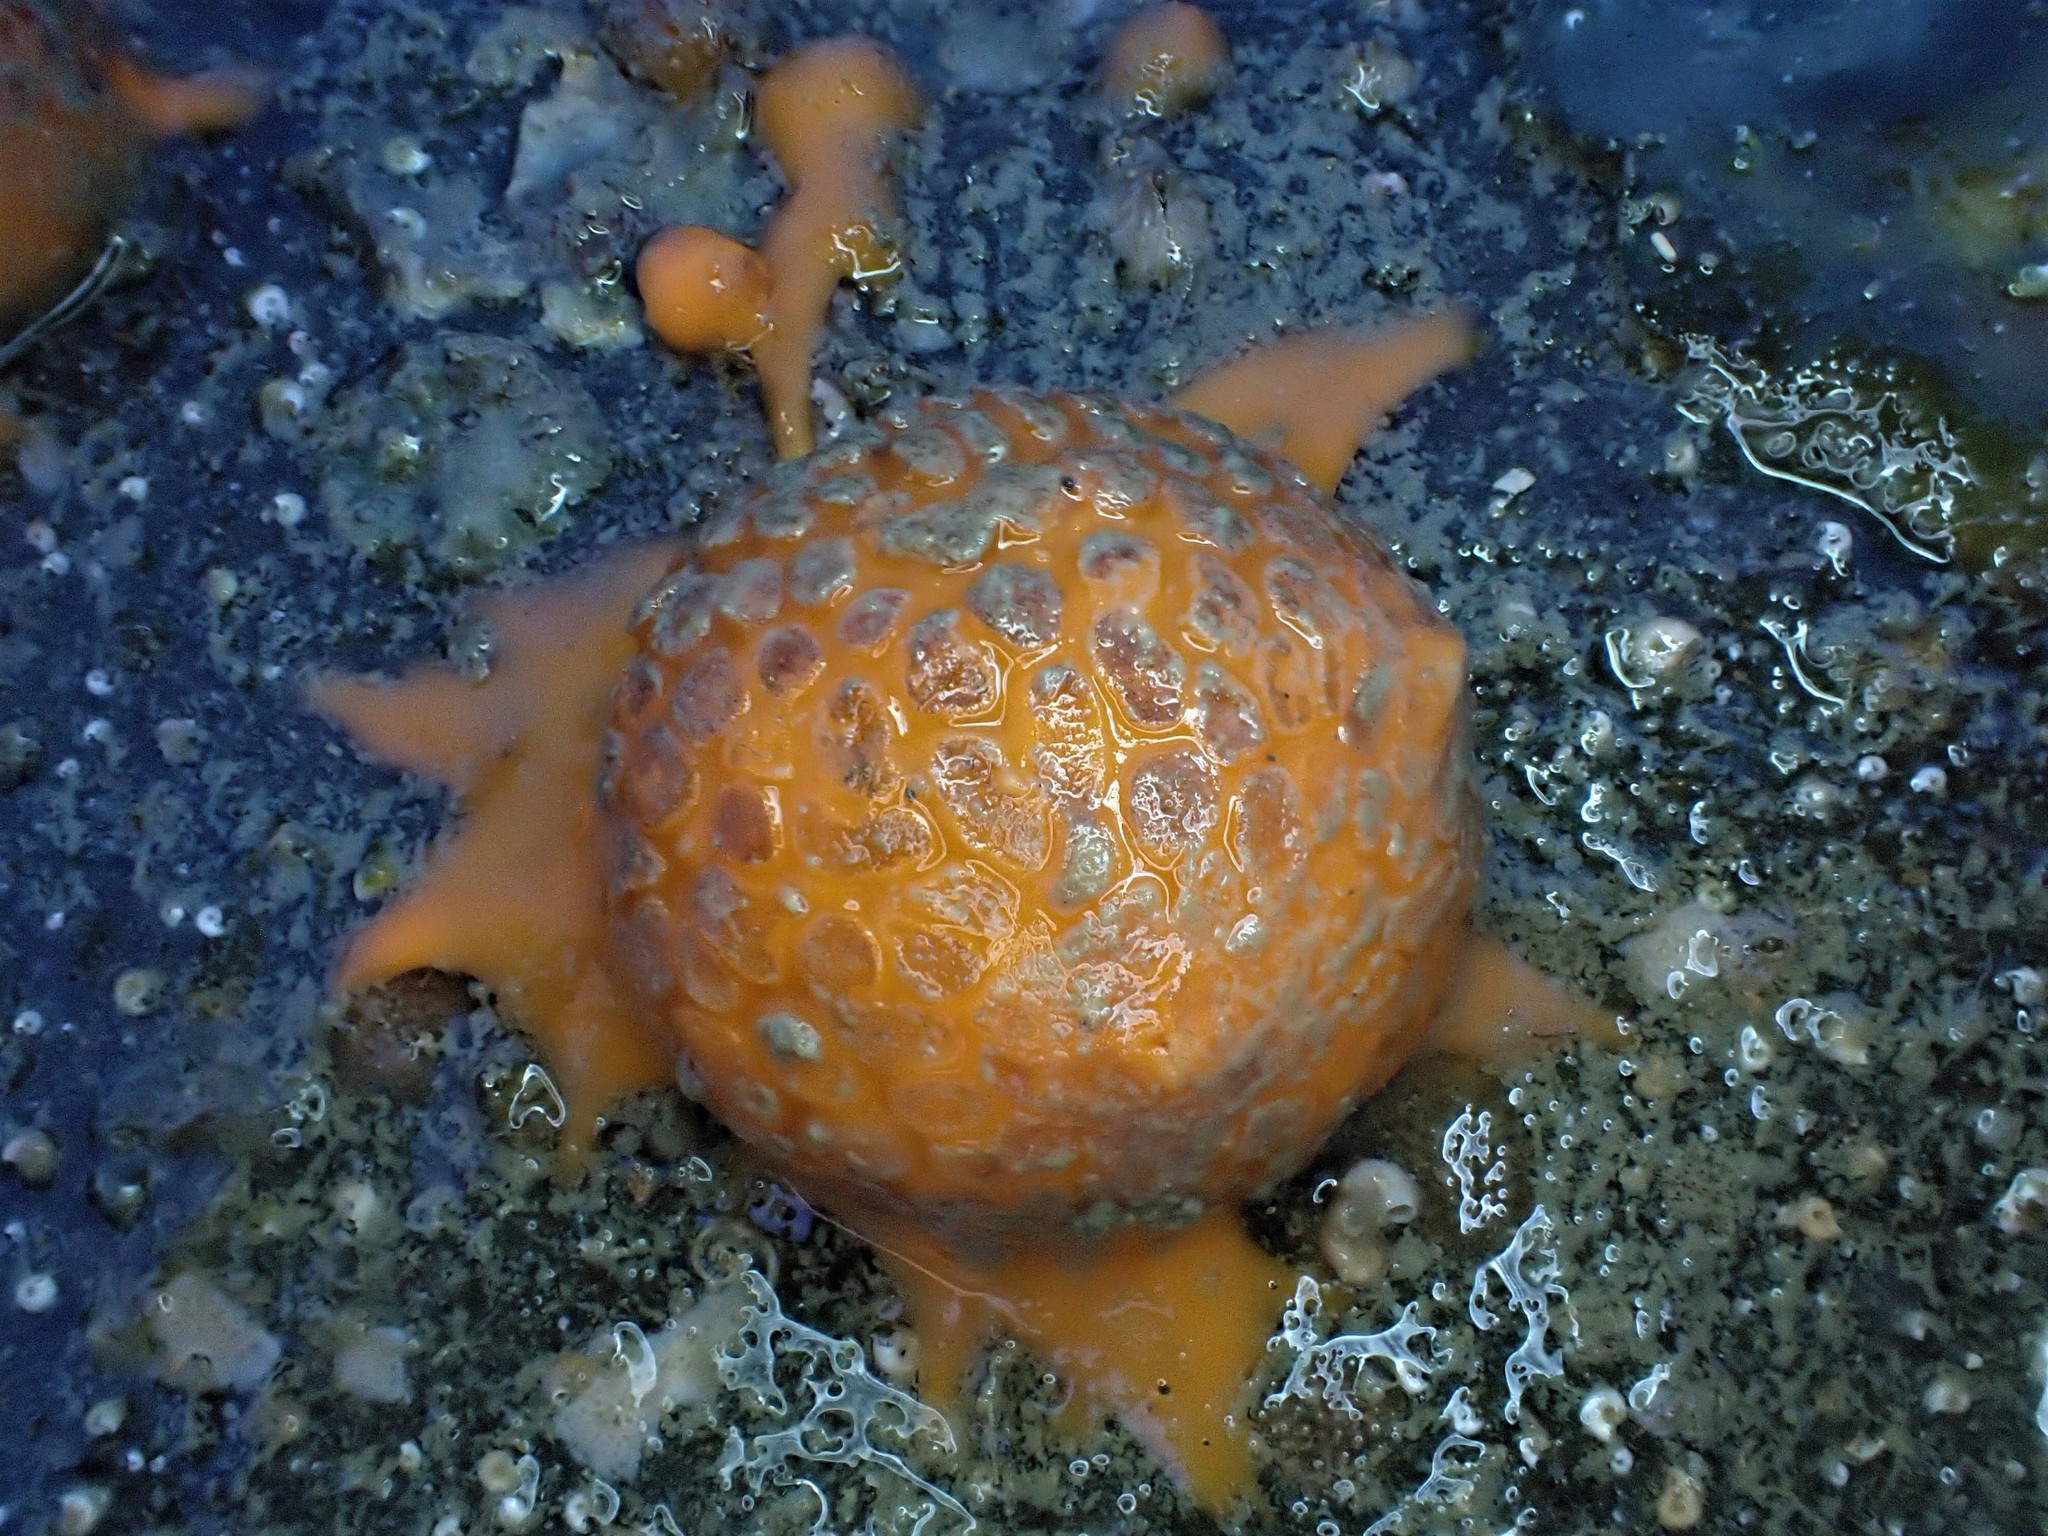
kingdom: Animalia
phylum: Porifera
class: Demospongiae
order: Tethyida
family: Tethyidae
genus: Tethya
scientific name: Tethya burtoni
